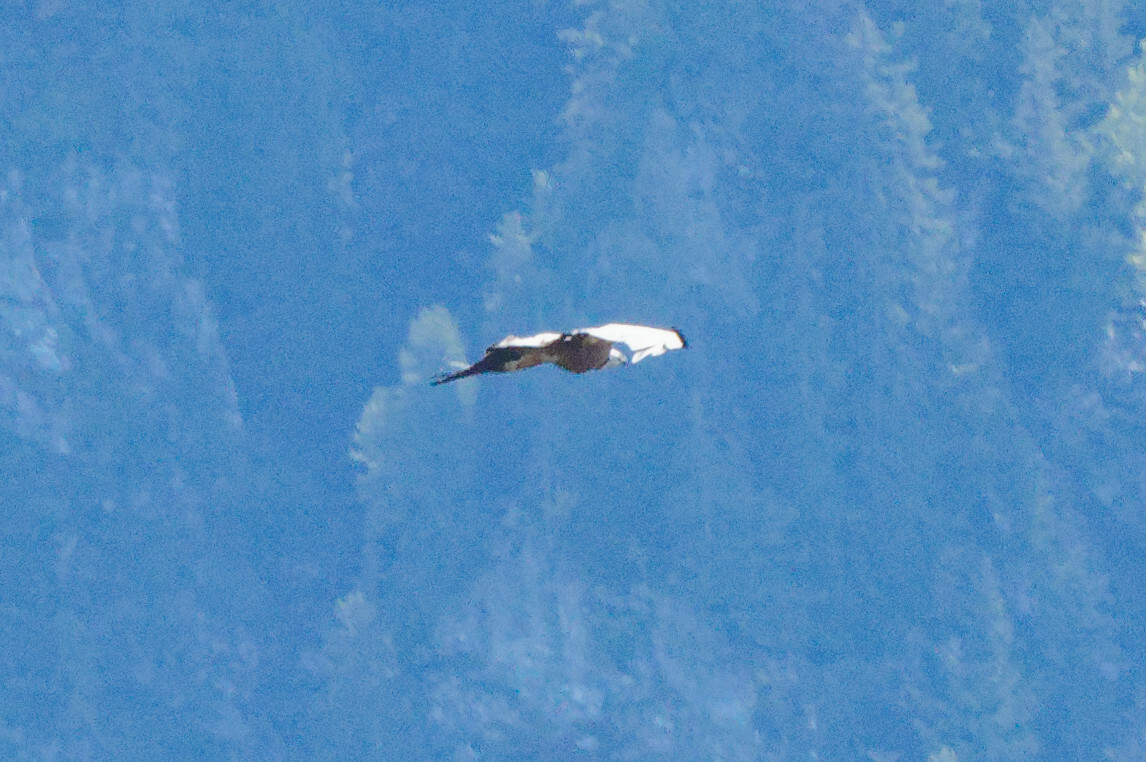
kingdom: Animalia
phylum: Chordata
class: Aves
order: Accipitriformes
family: Accipitridae
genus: Gyps
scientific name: Gyps fulvus
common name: Griffon vulture
